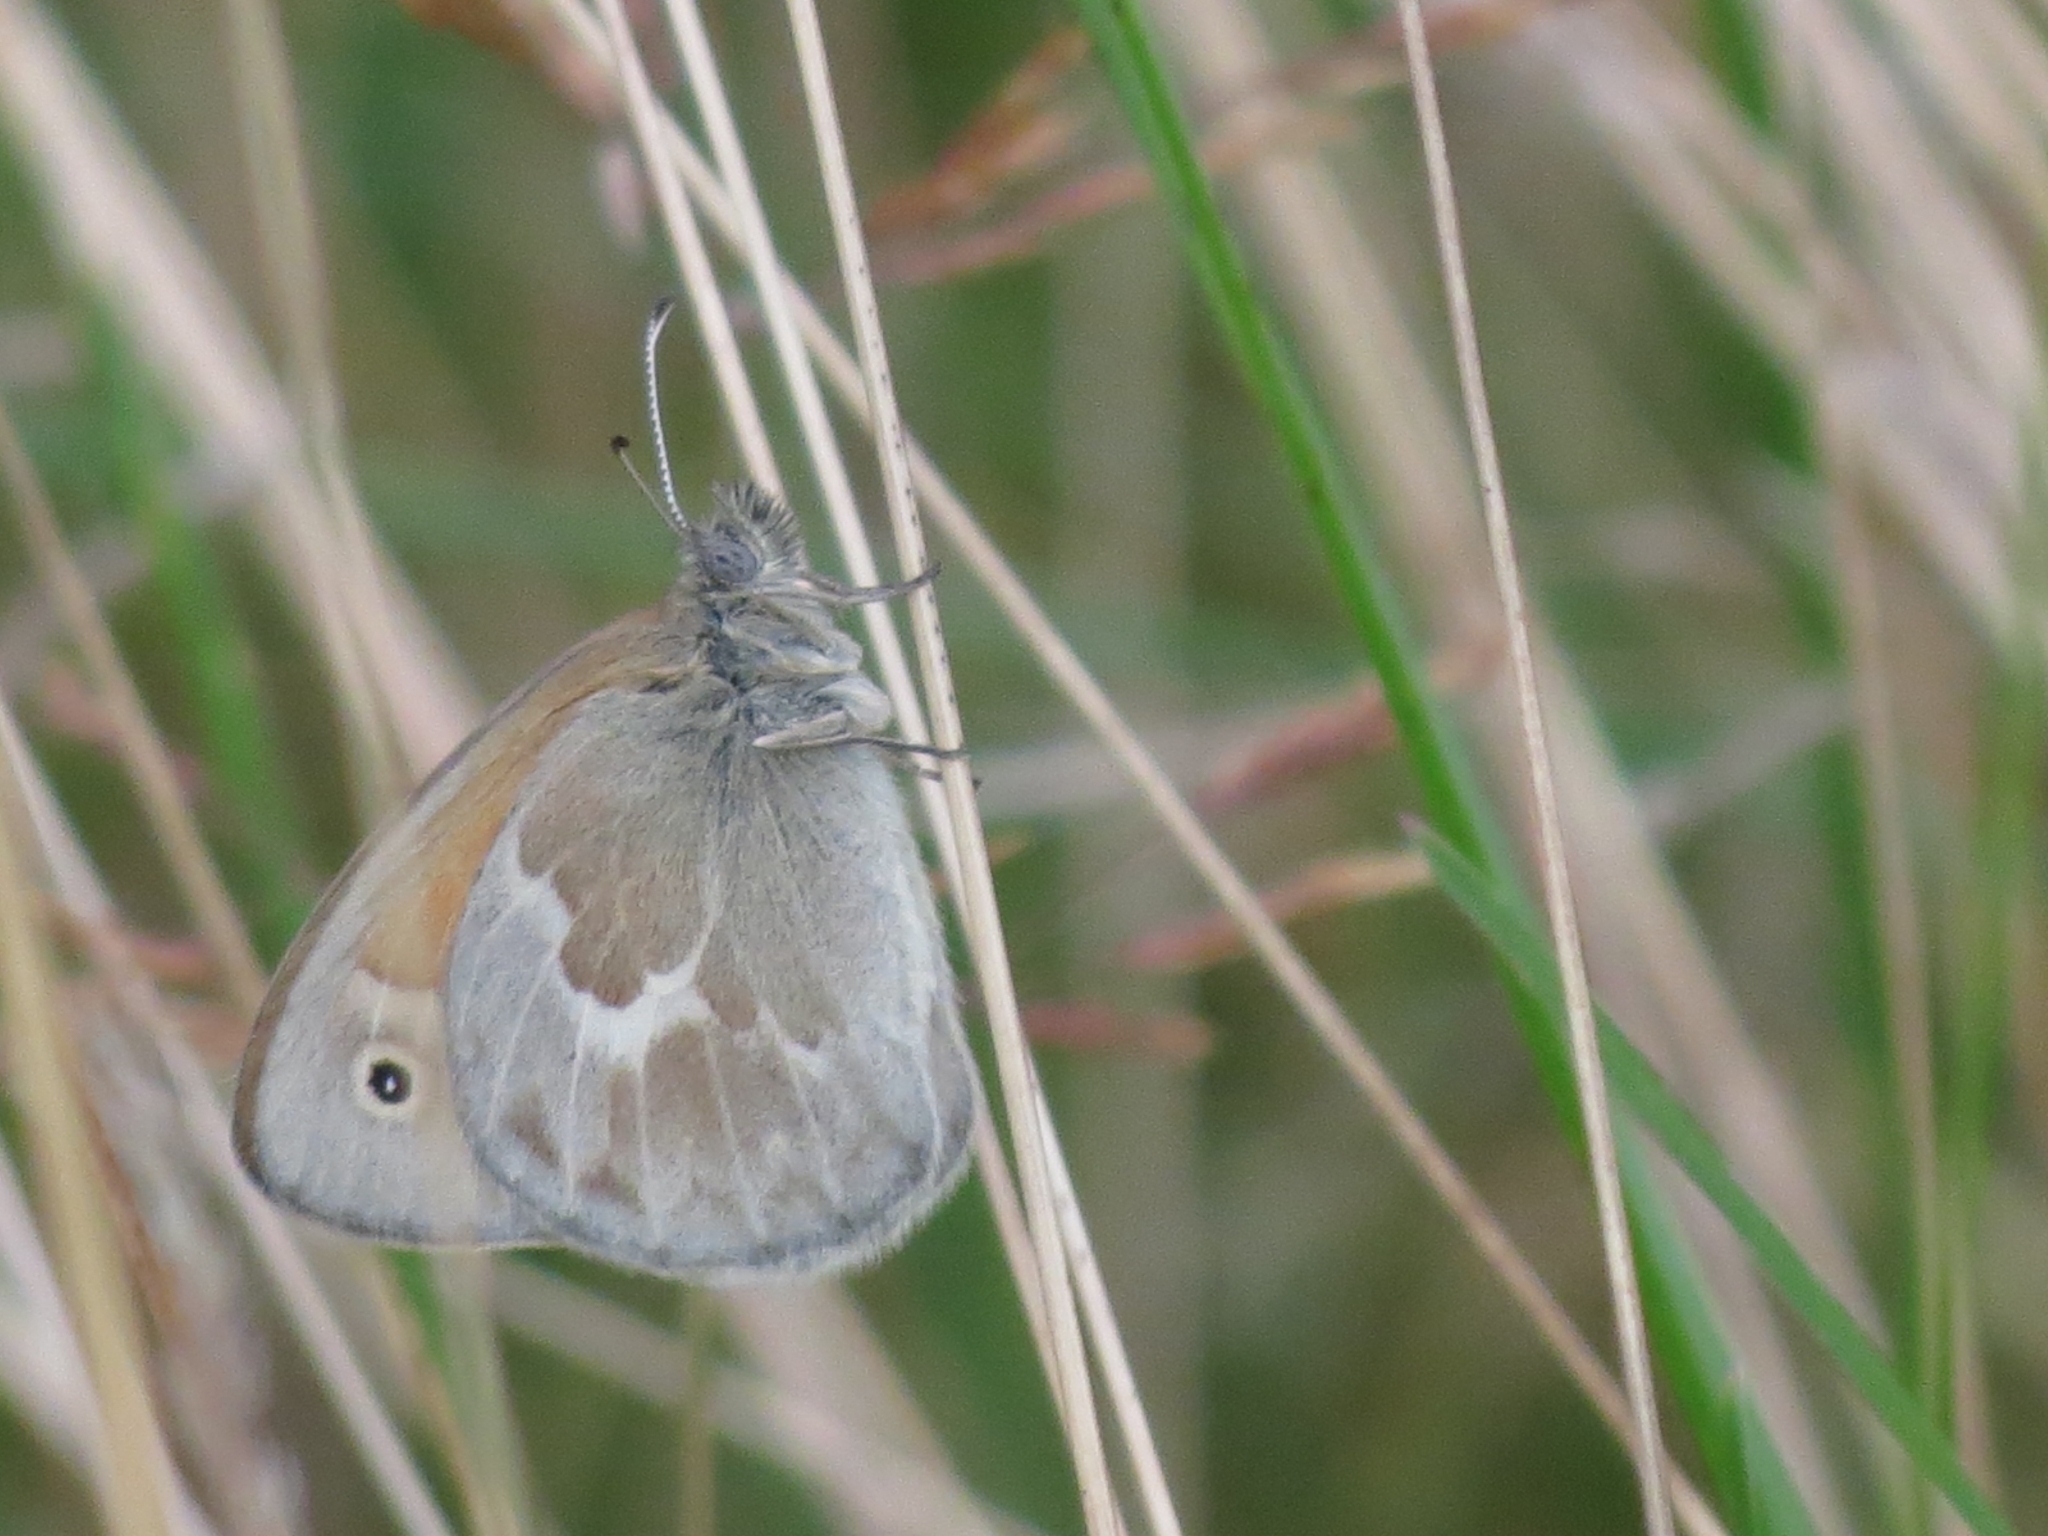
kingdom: Animalia
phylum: Arthropoda
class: Insecta
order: Lepidoptera
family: Nymphalidae
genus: Coenonympha
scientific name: Coenonympha california
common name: Common ringlet
